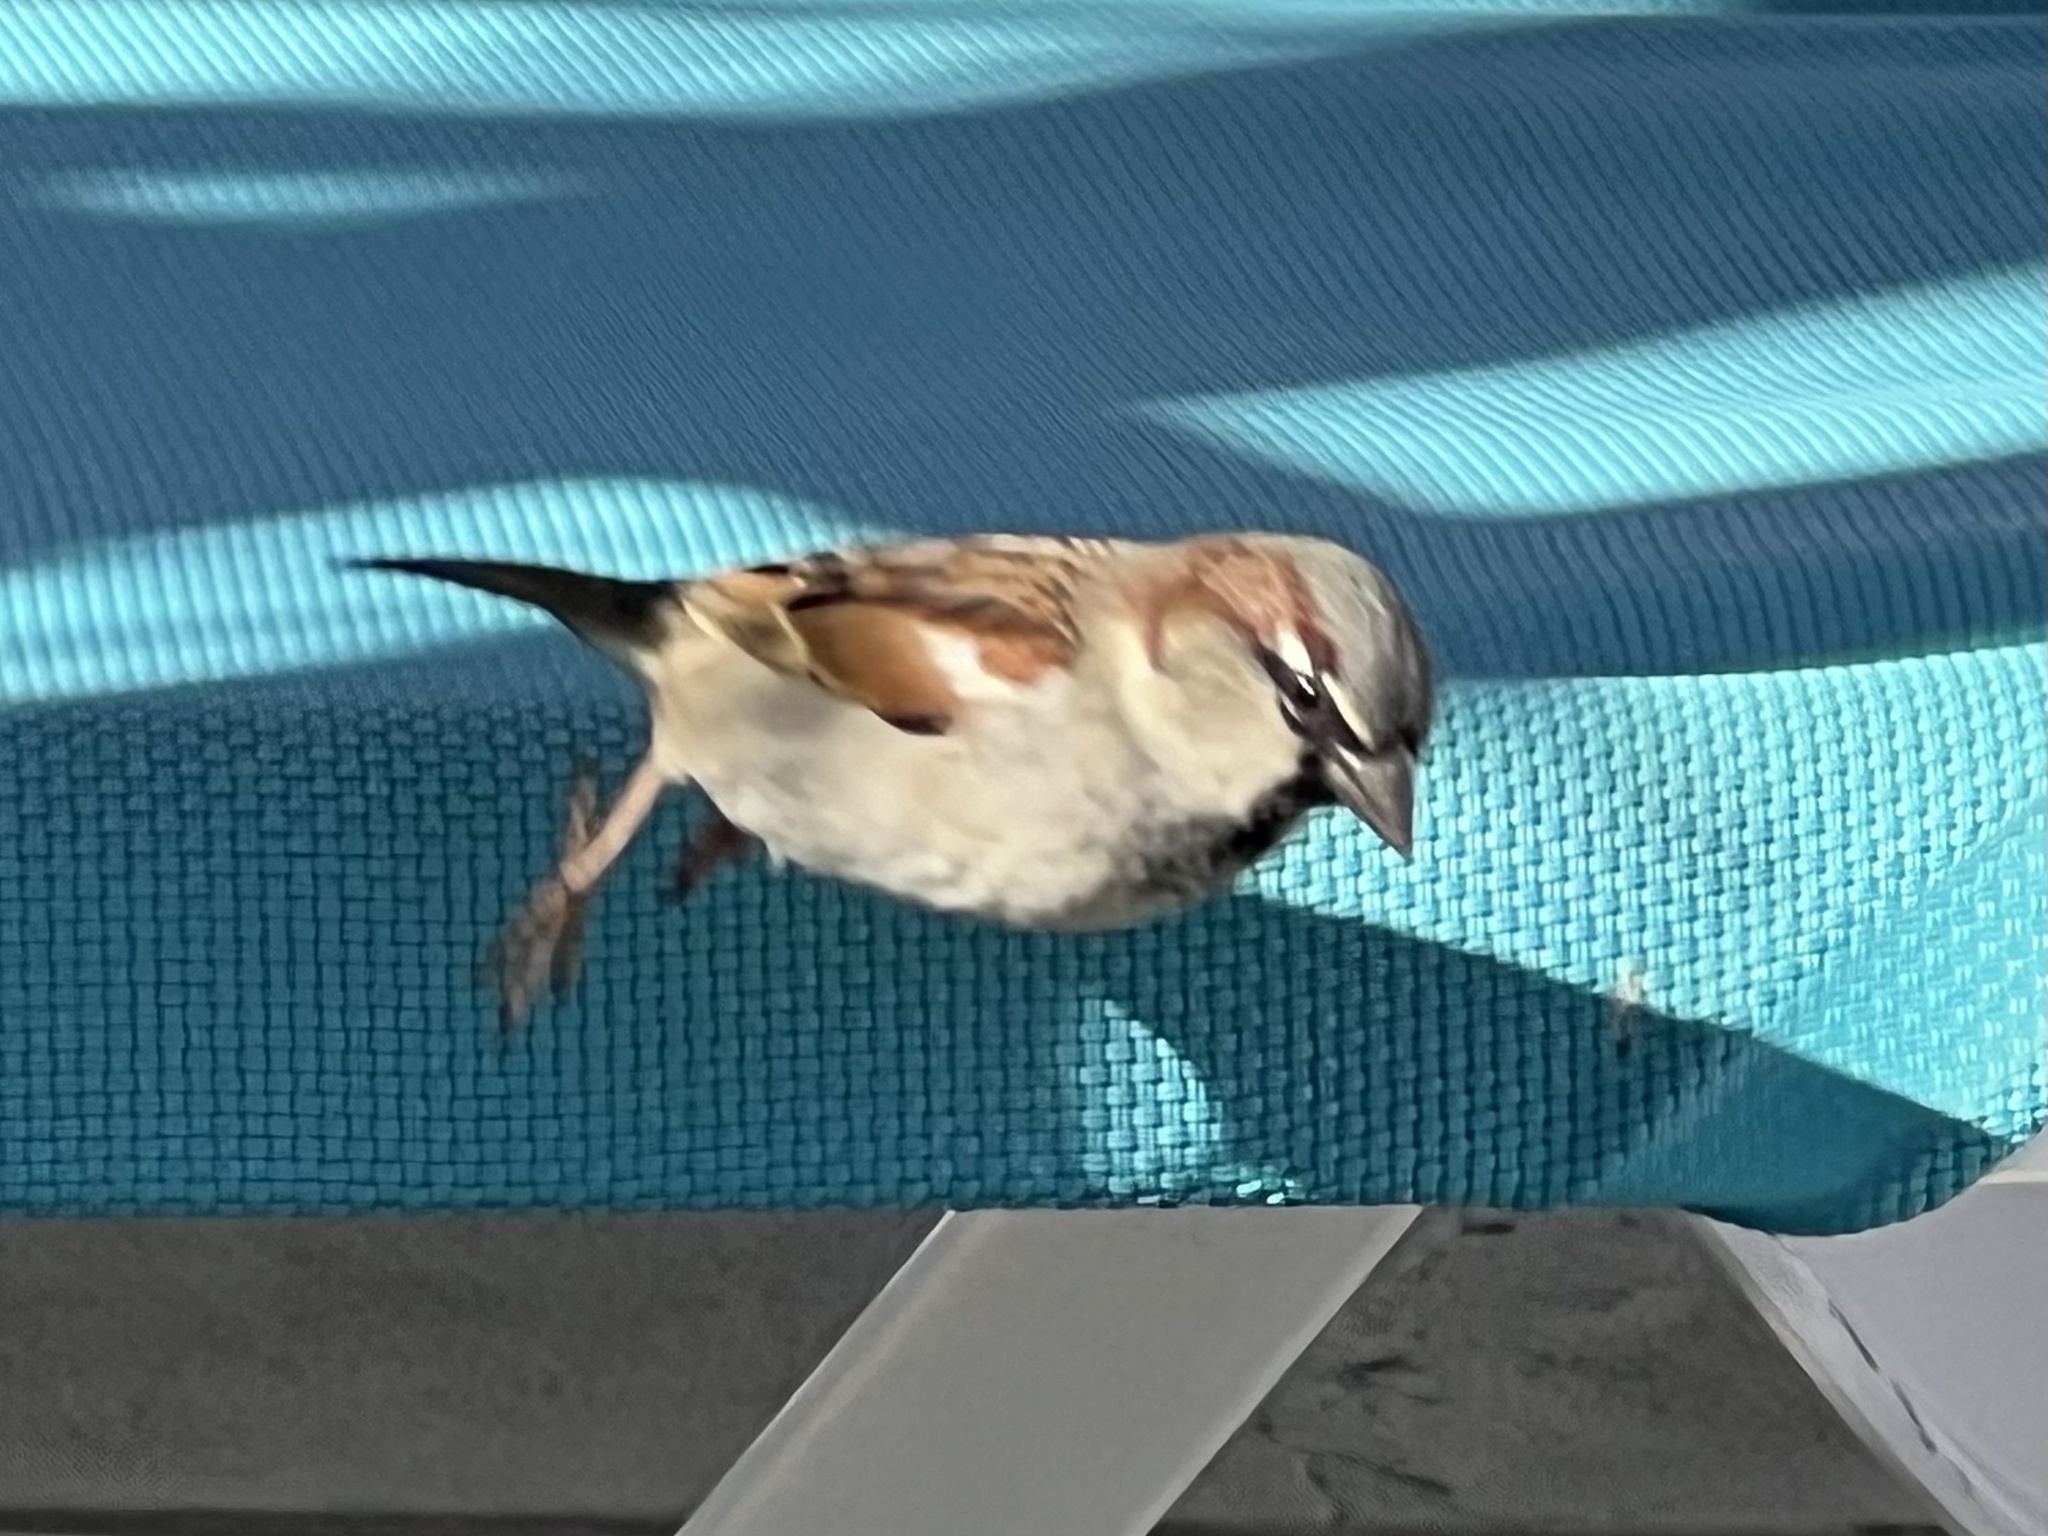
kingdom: Animalia
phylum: Chordata
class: Aves
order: Passeriformes
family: Passeridae
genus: Passer
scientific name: Passer domesticus
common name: House sparrow
